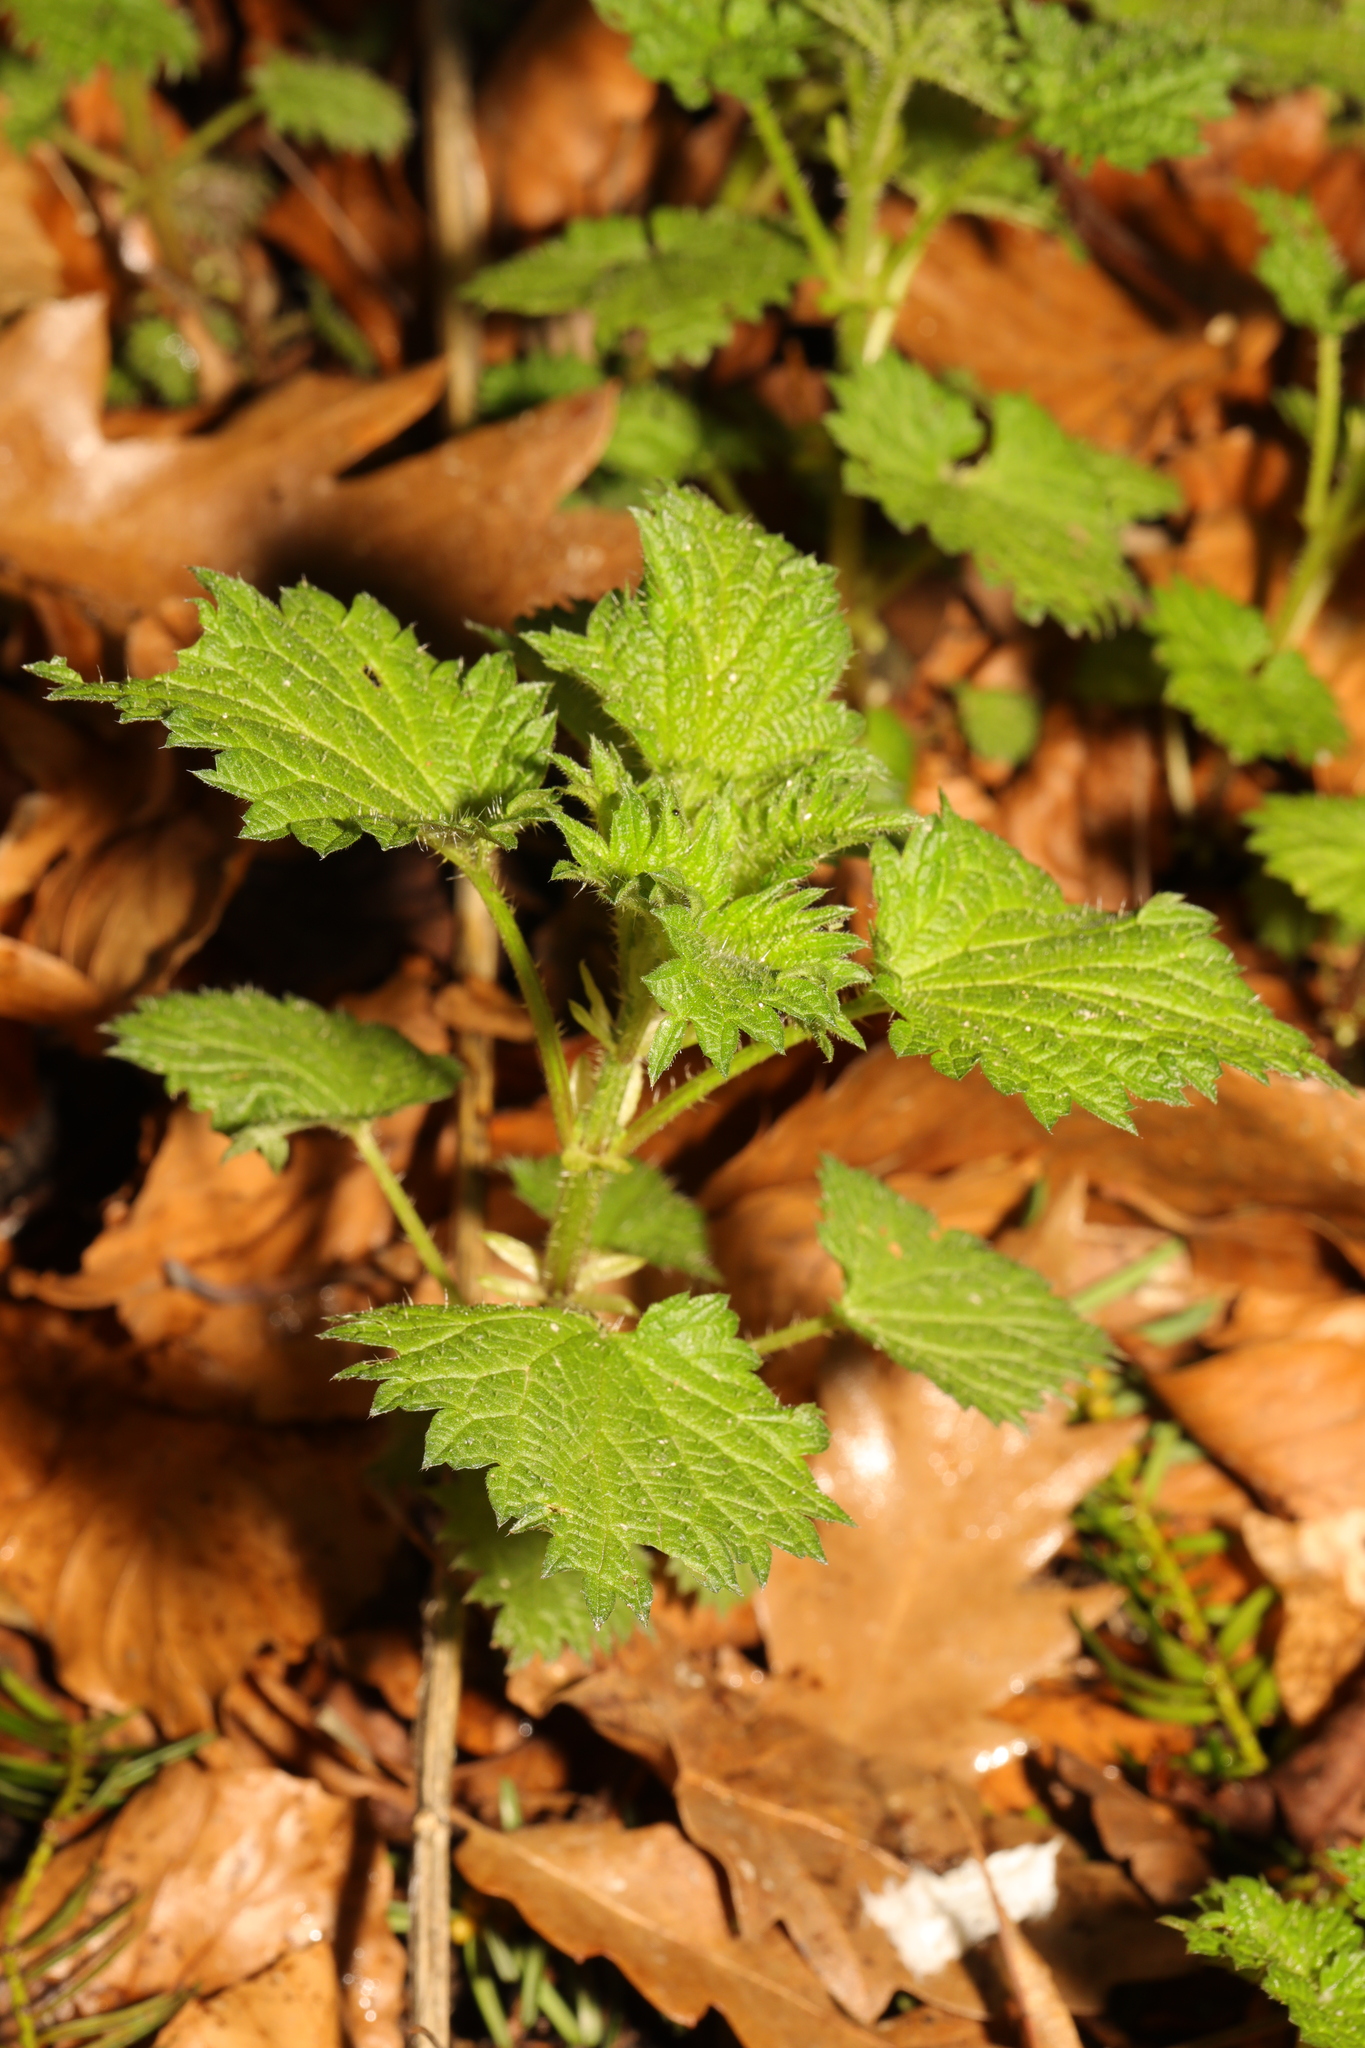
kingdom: Plantae
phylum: Tracheophyta
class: Magnoliopsida
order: Rosales
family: Urticaceae
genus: Urtica
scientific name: Urtica dioica
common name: Common nettle
